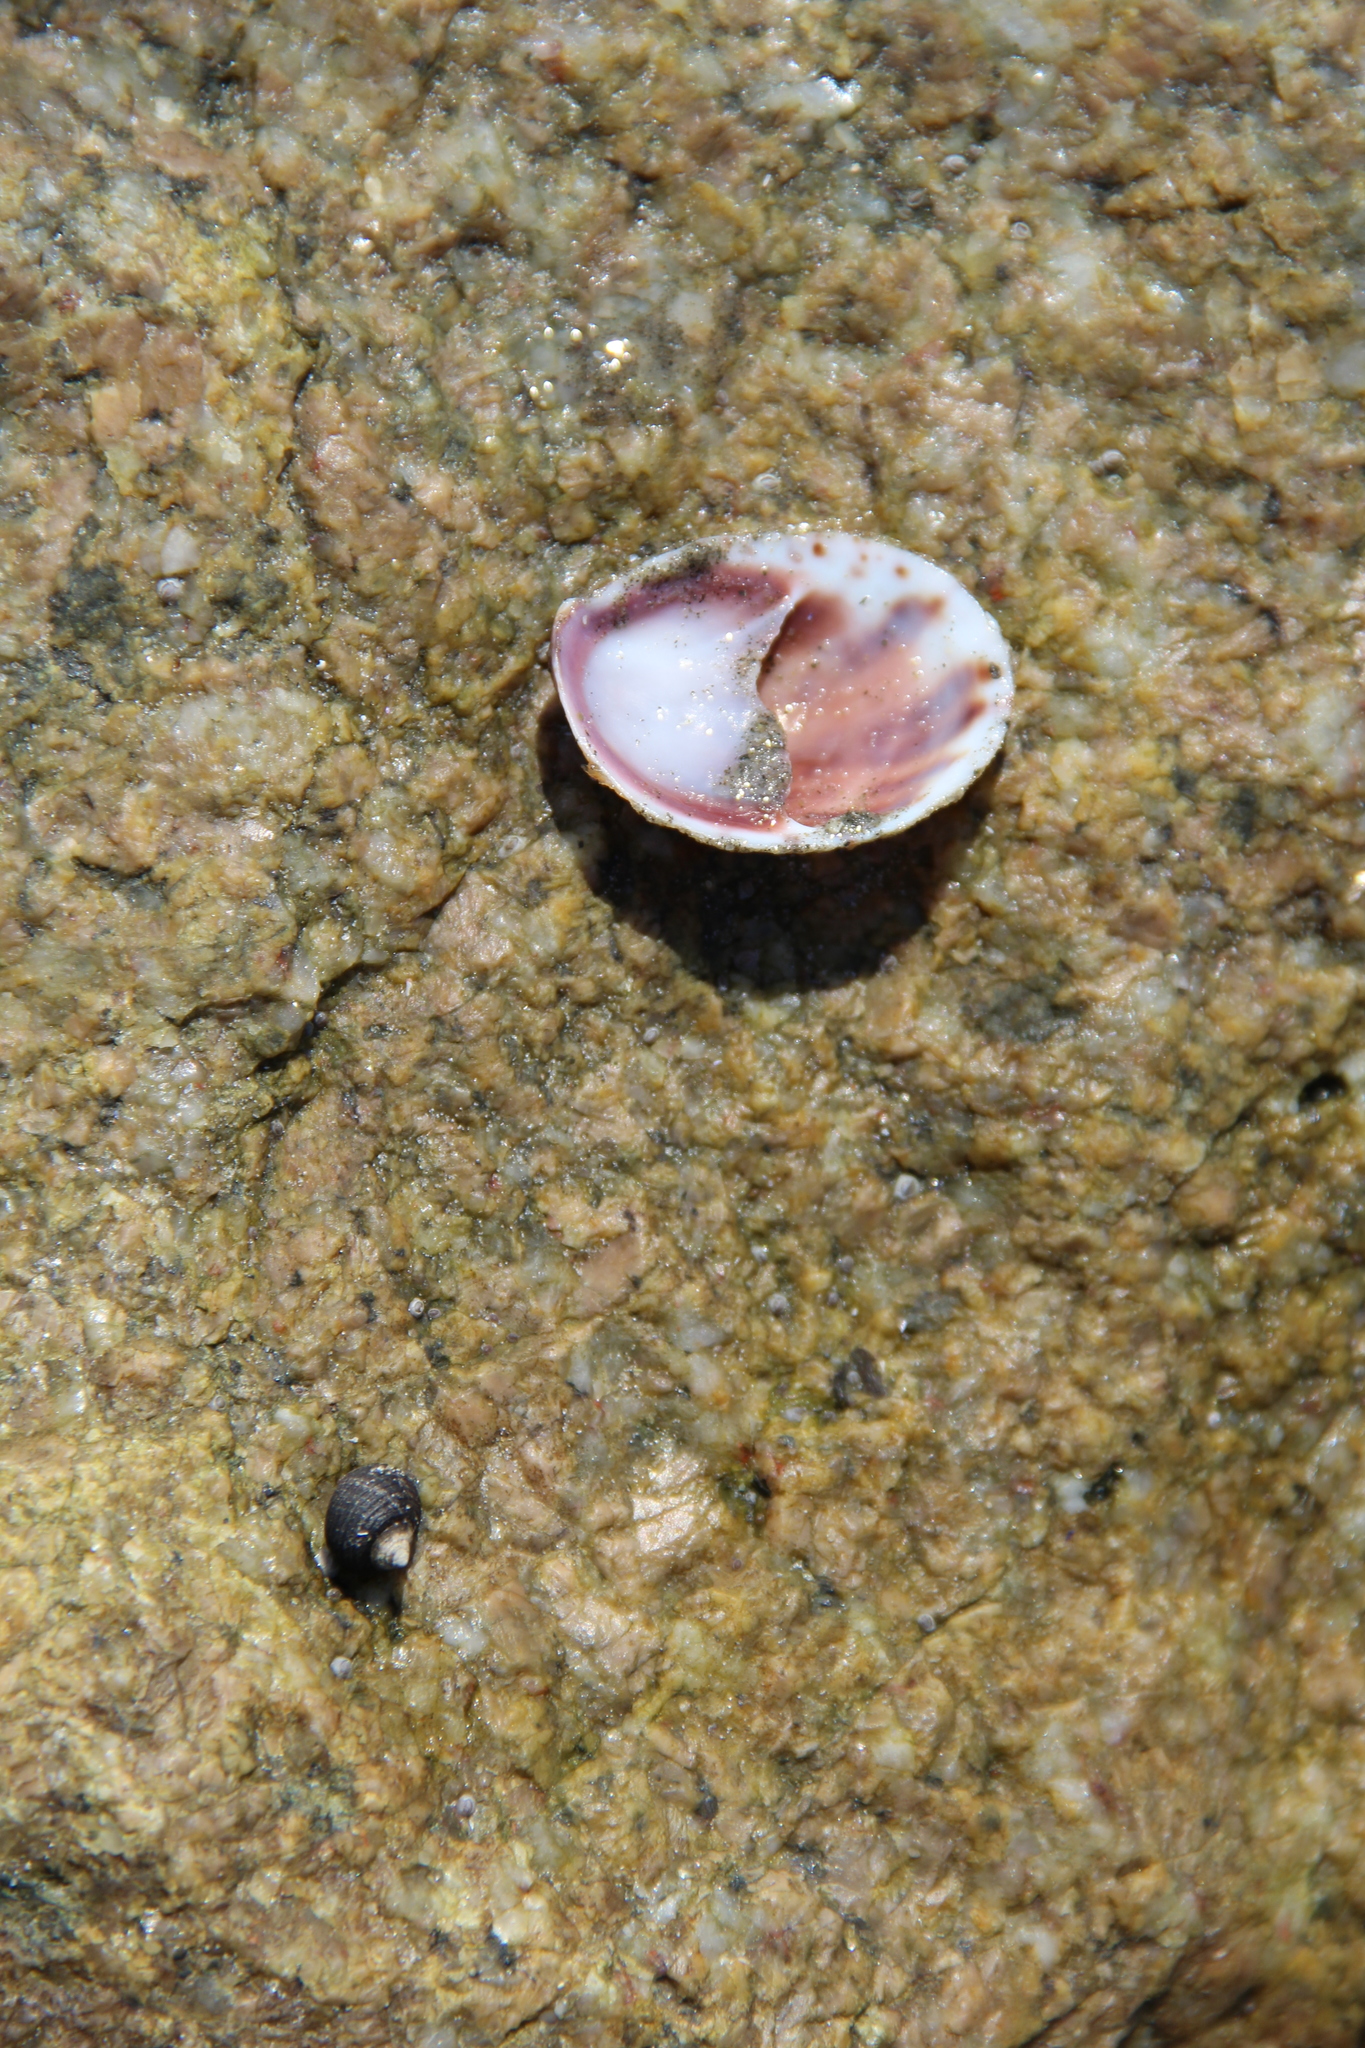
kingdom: Animalia
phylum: Mollusca
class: Gastropoda
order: Littorinimorpha
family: Calyptraeidae
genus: Crepidula
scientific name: Crepidula fornicata
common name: Slipper limpet
